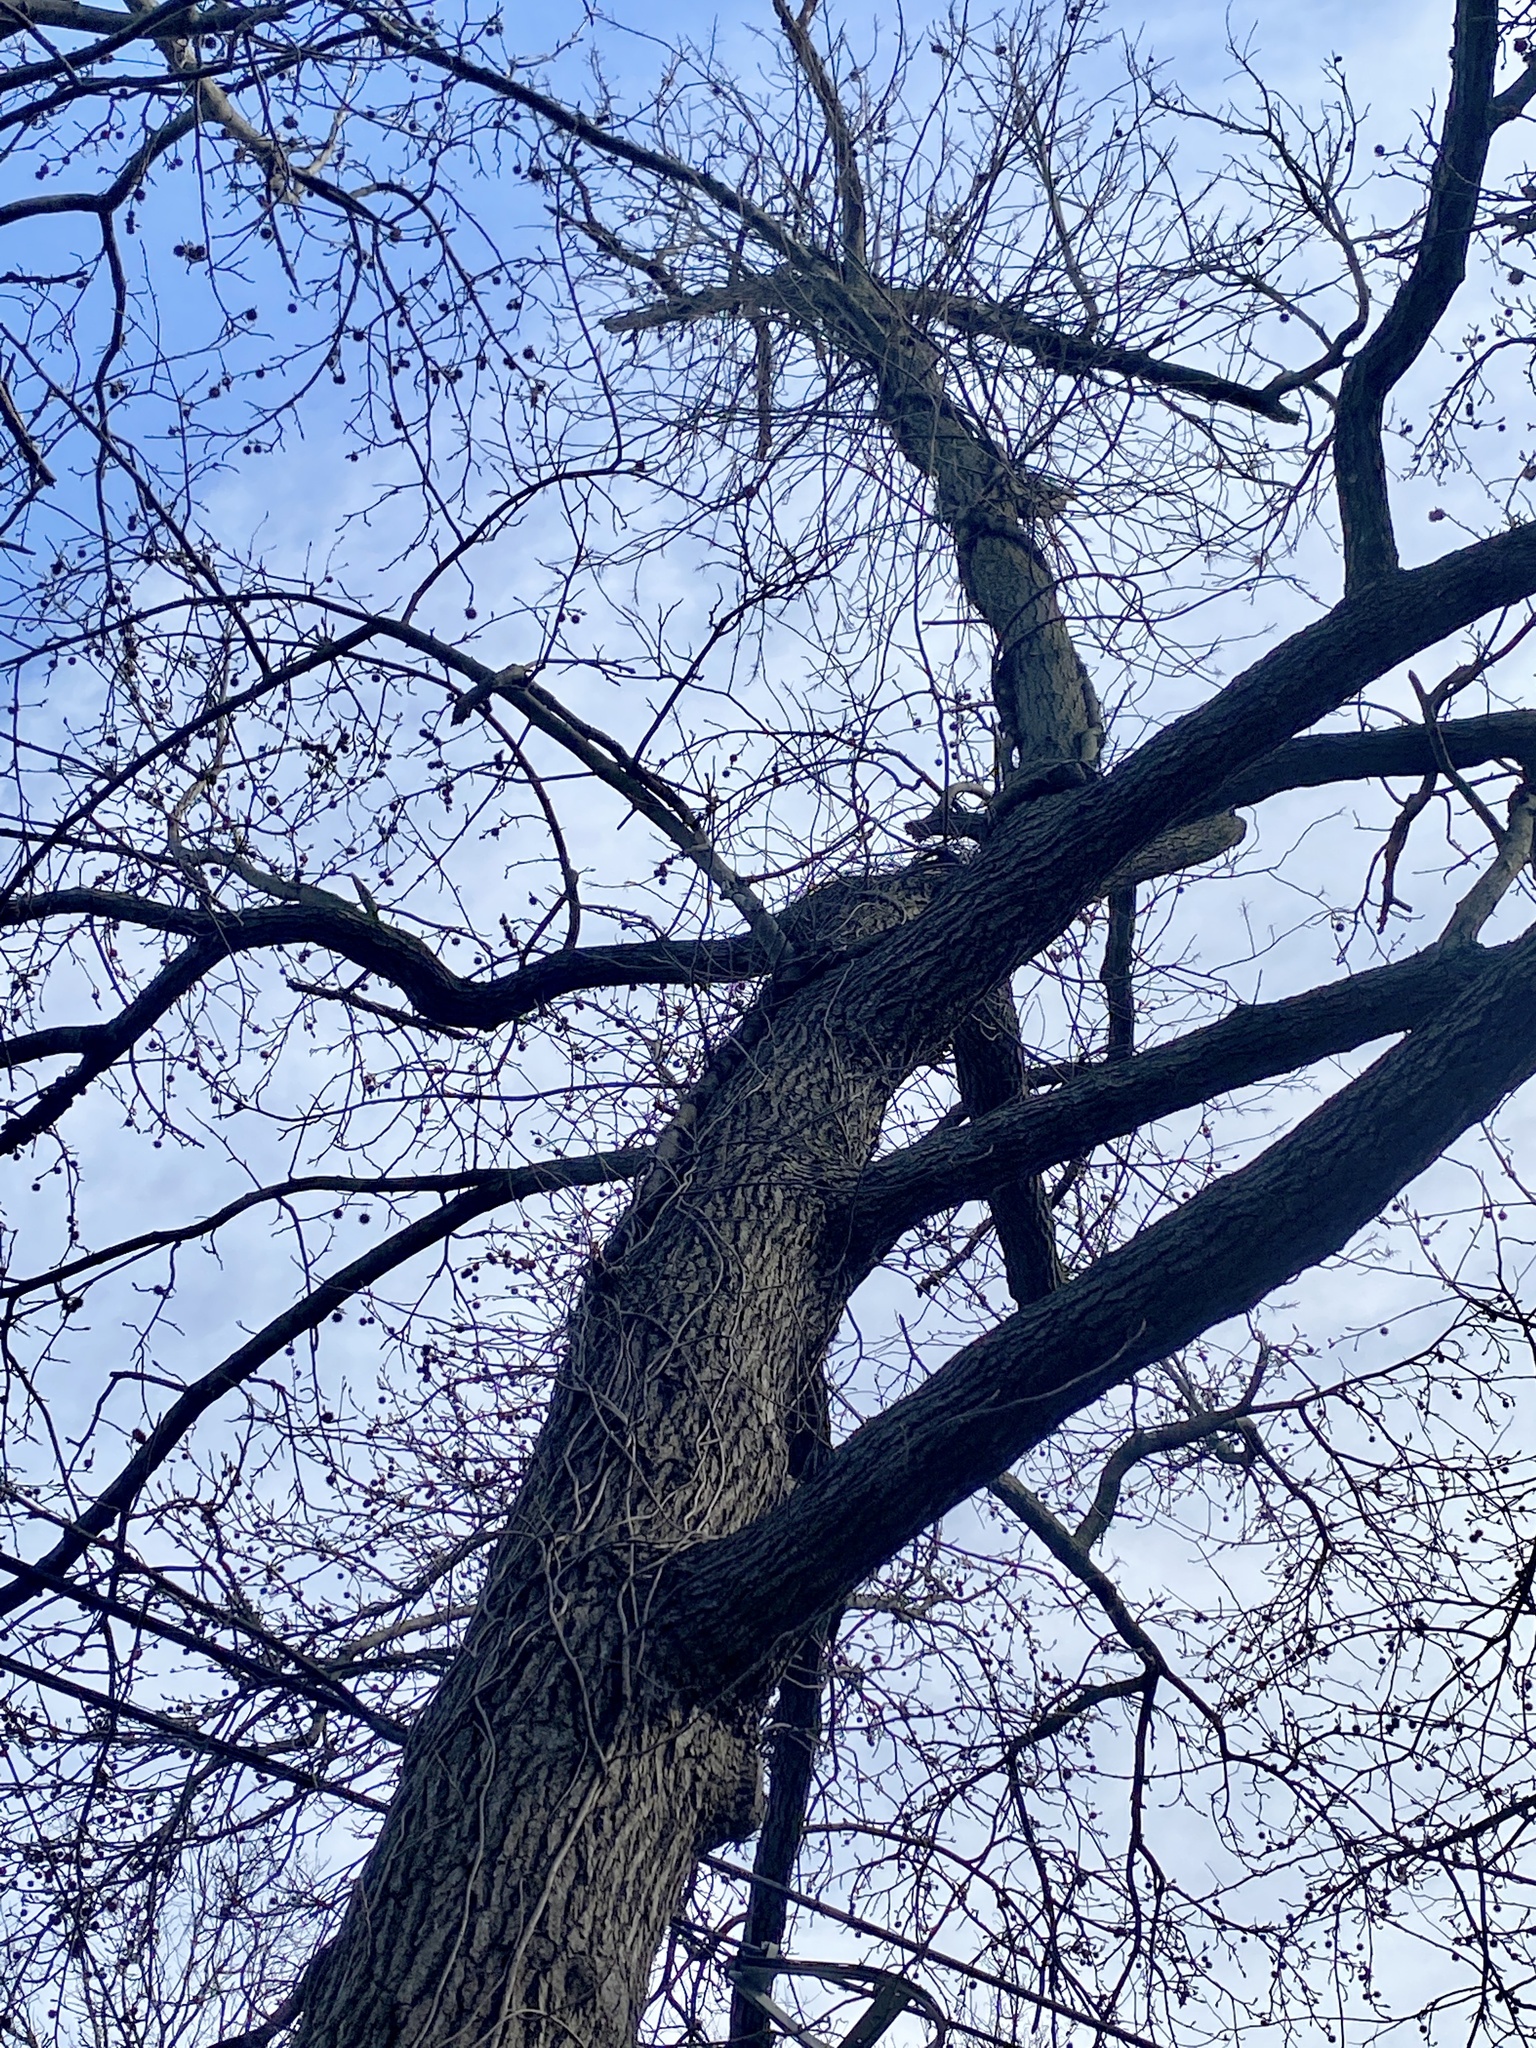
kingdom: Plantae
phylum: Tracheophyta
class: Magnoliopsida
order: Saxifragales
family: Altingiaceae
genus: Liquidambar
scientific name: Liquidambar styraciflua
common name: Sweet gum
